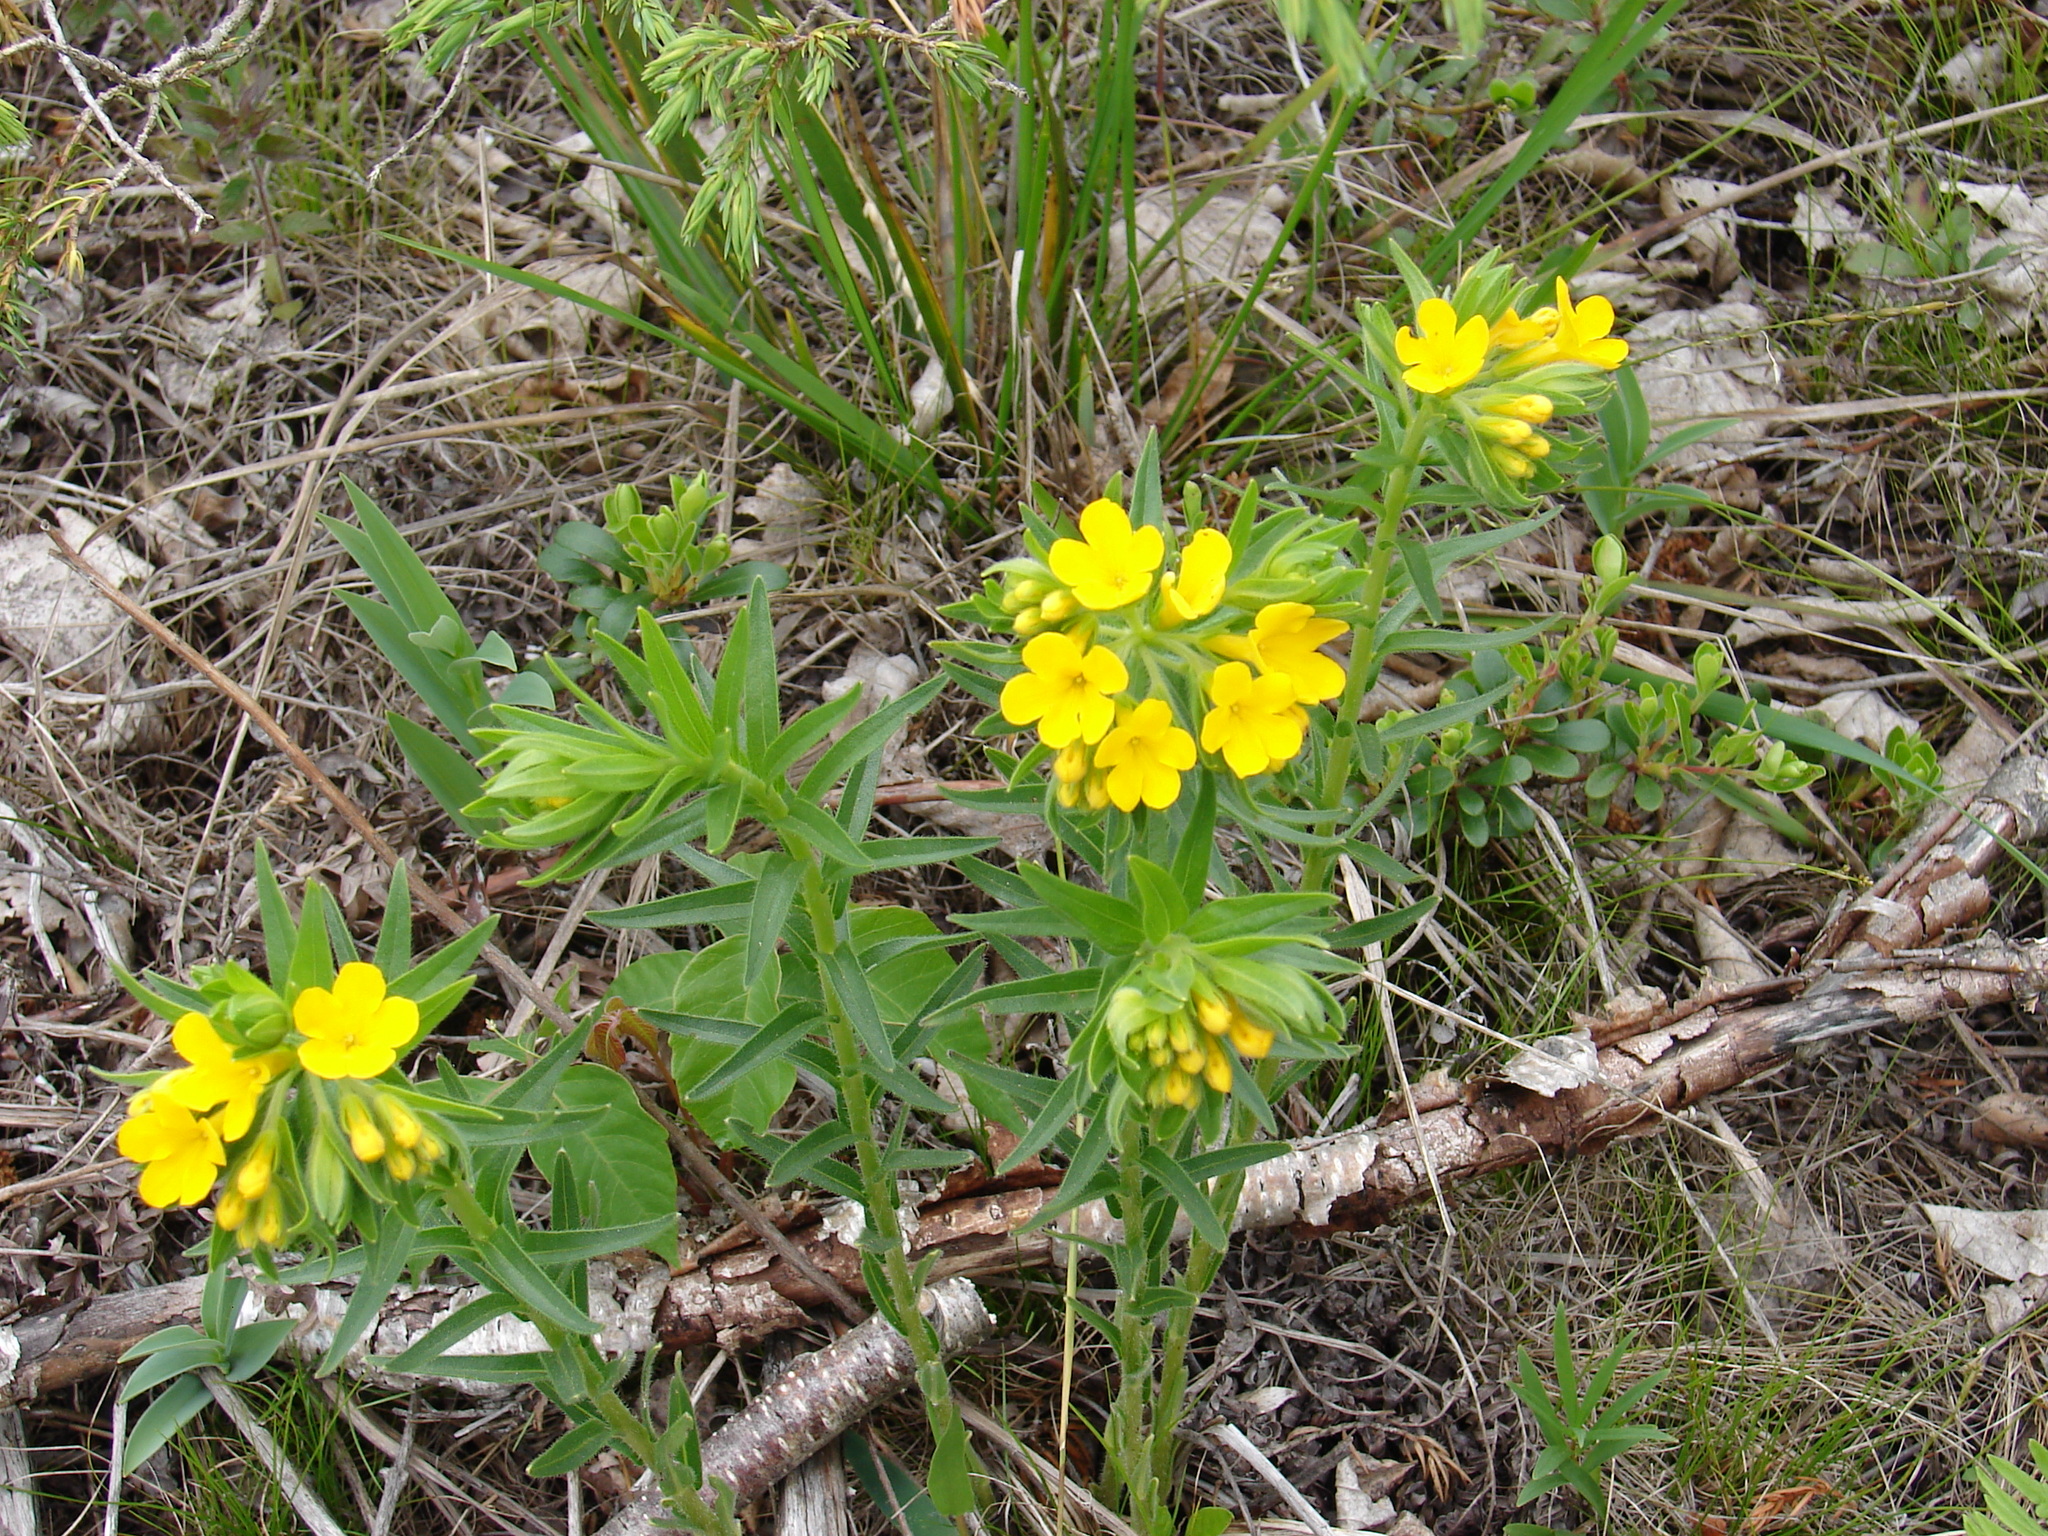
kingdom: Plantae
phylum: Tracheophyta
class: Magnoliopsida
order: Boraginales
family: Boraginaceae
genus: Lithospermum
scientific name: Lithospermum caroliniense
